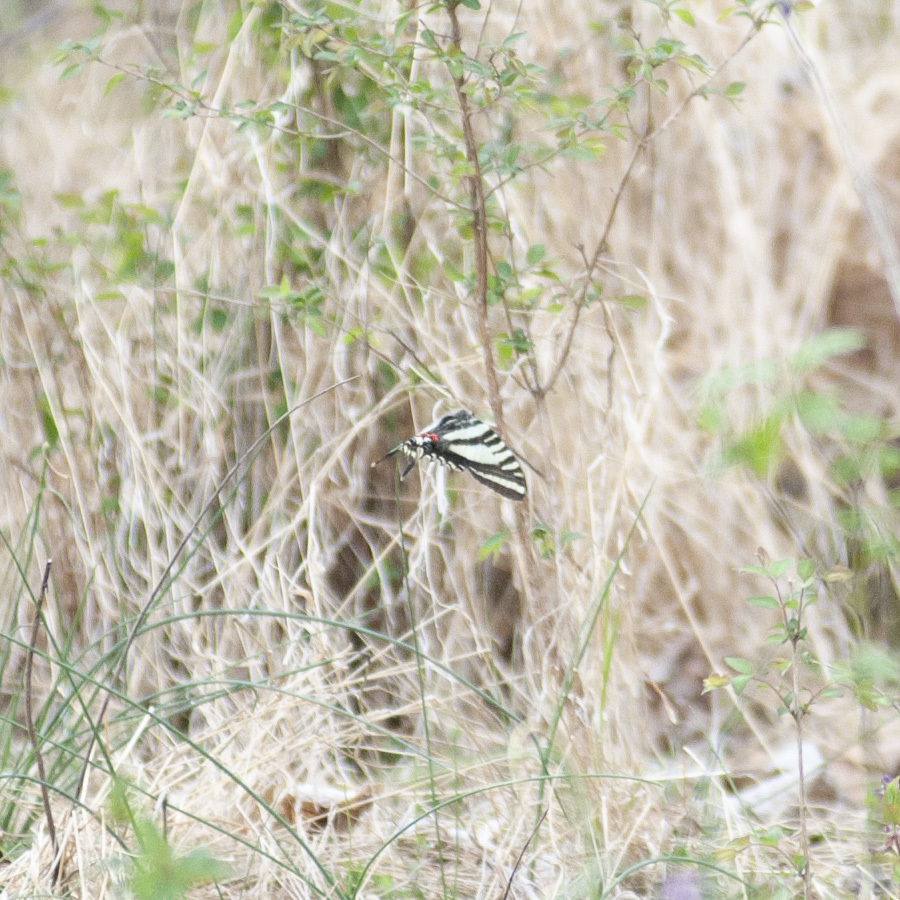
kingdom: Animalia
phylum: Arthropoda
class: Insecta
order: Lepidoptera
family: Papilionidae
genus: Protographium
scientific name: Protographium marcellus
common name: Zebra swallowtail
